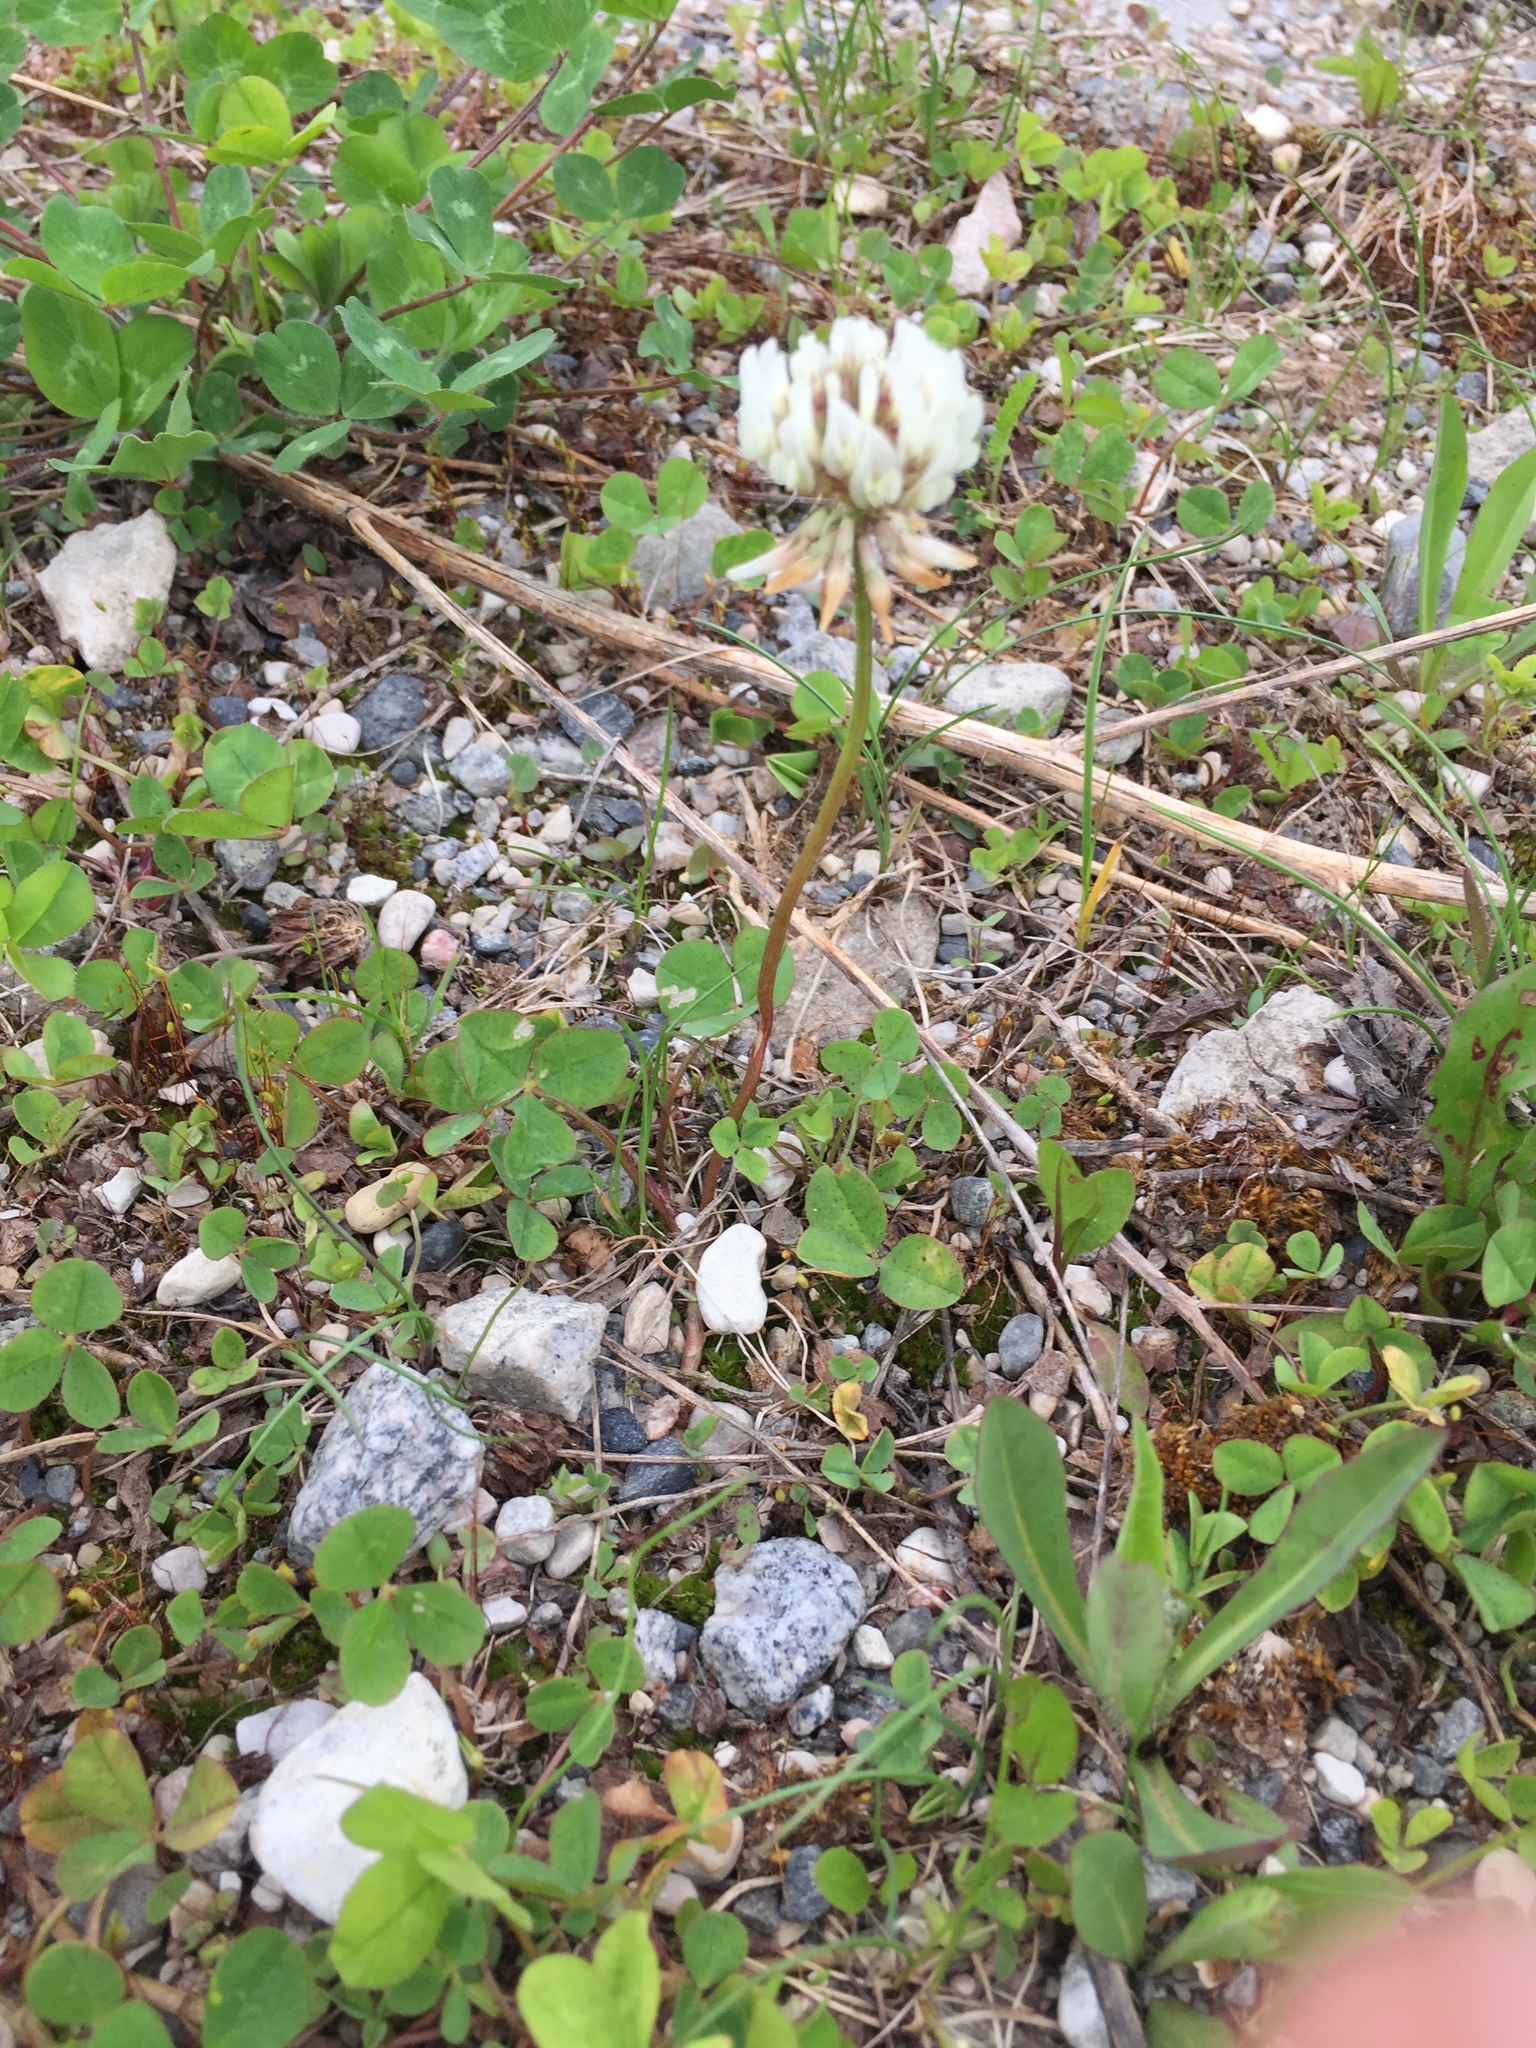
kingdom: Plantae
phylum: Tracheophyta
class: Magnoliopsida
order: Fabales
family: Fabaceae
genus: Trifolium
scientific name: Trifolium repens
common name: White clover
